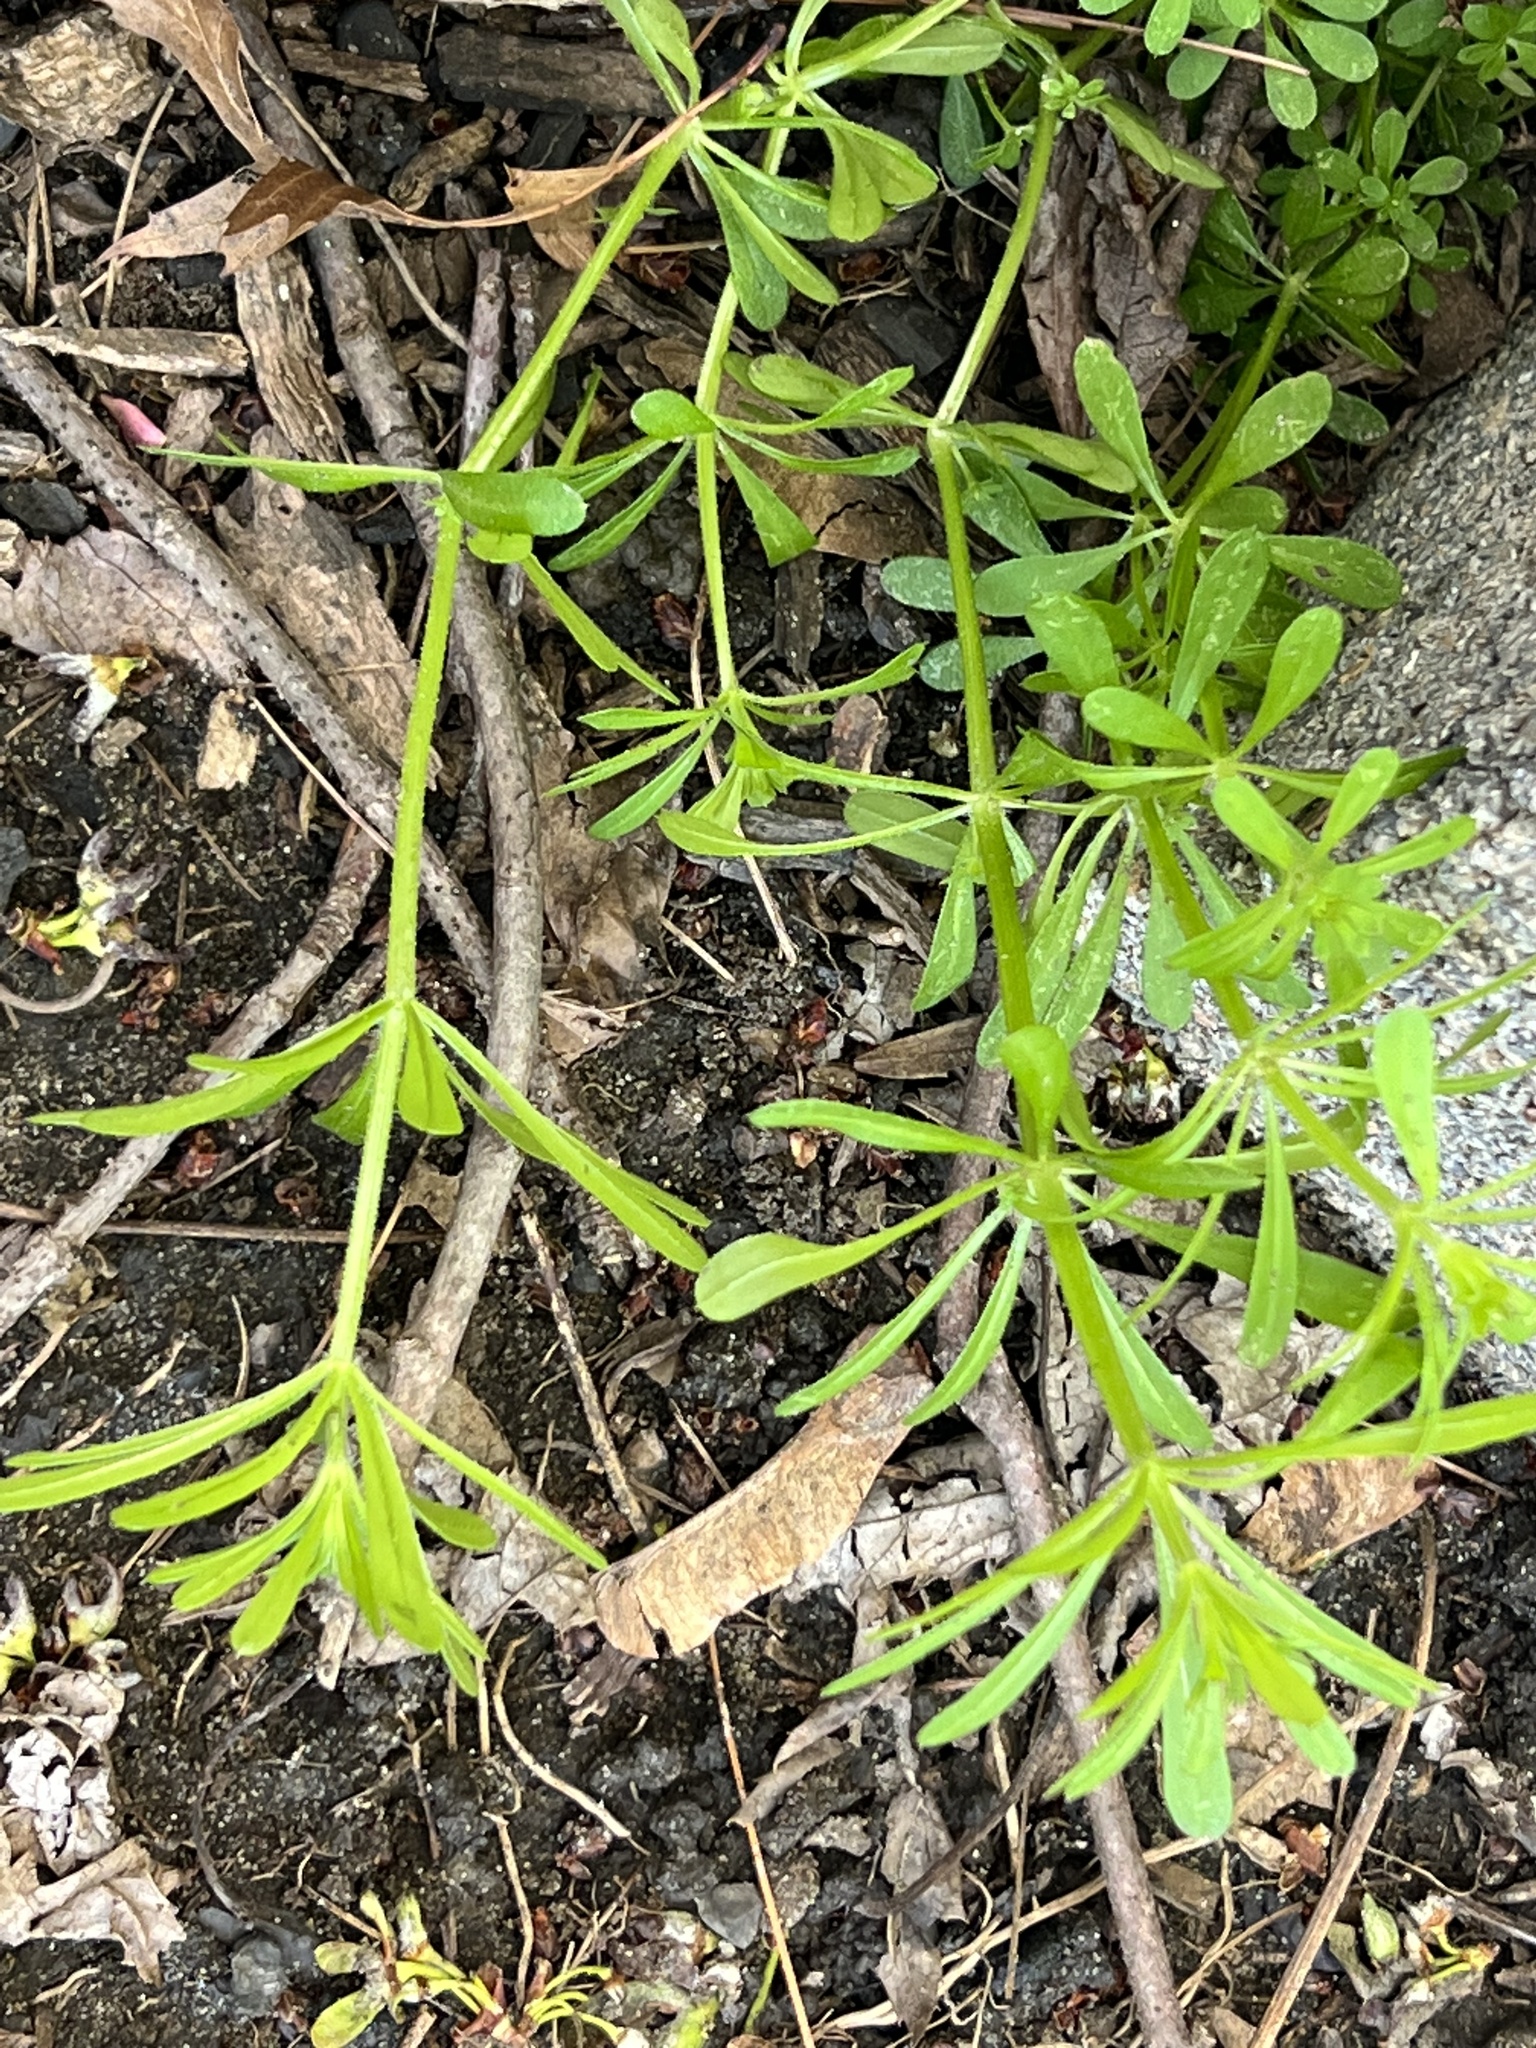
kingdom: Plantae
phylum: Tracheophyta
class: Magnoliopsida
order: Gentianales
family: Rubiaceae
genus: Galium
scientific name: Galium aparine
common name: Cleavers
